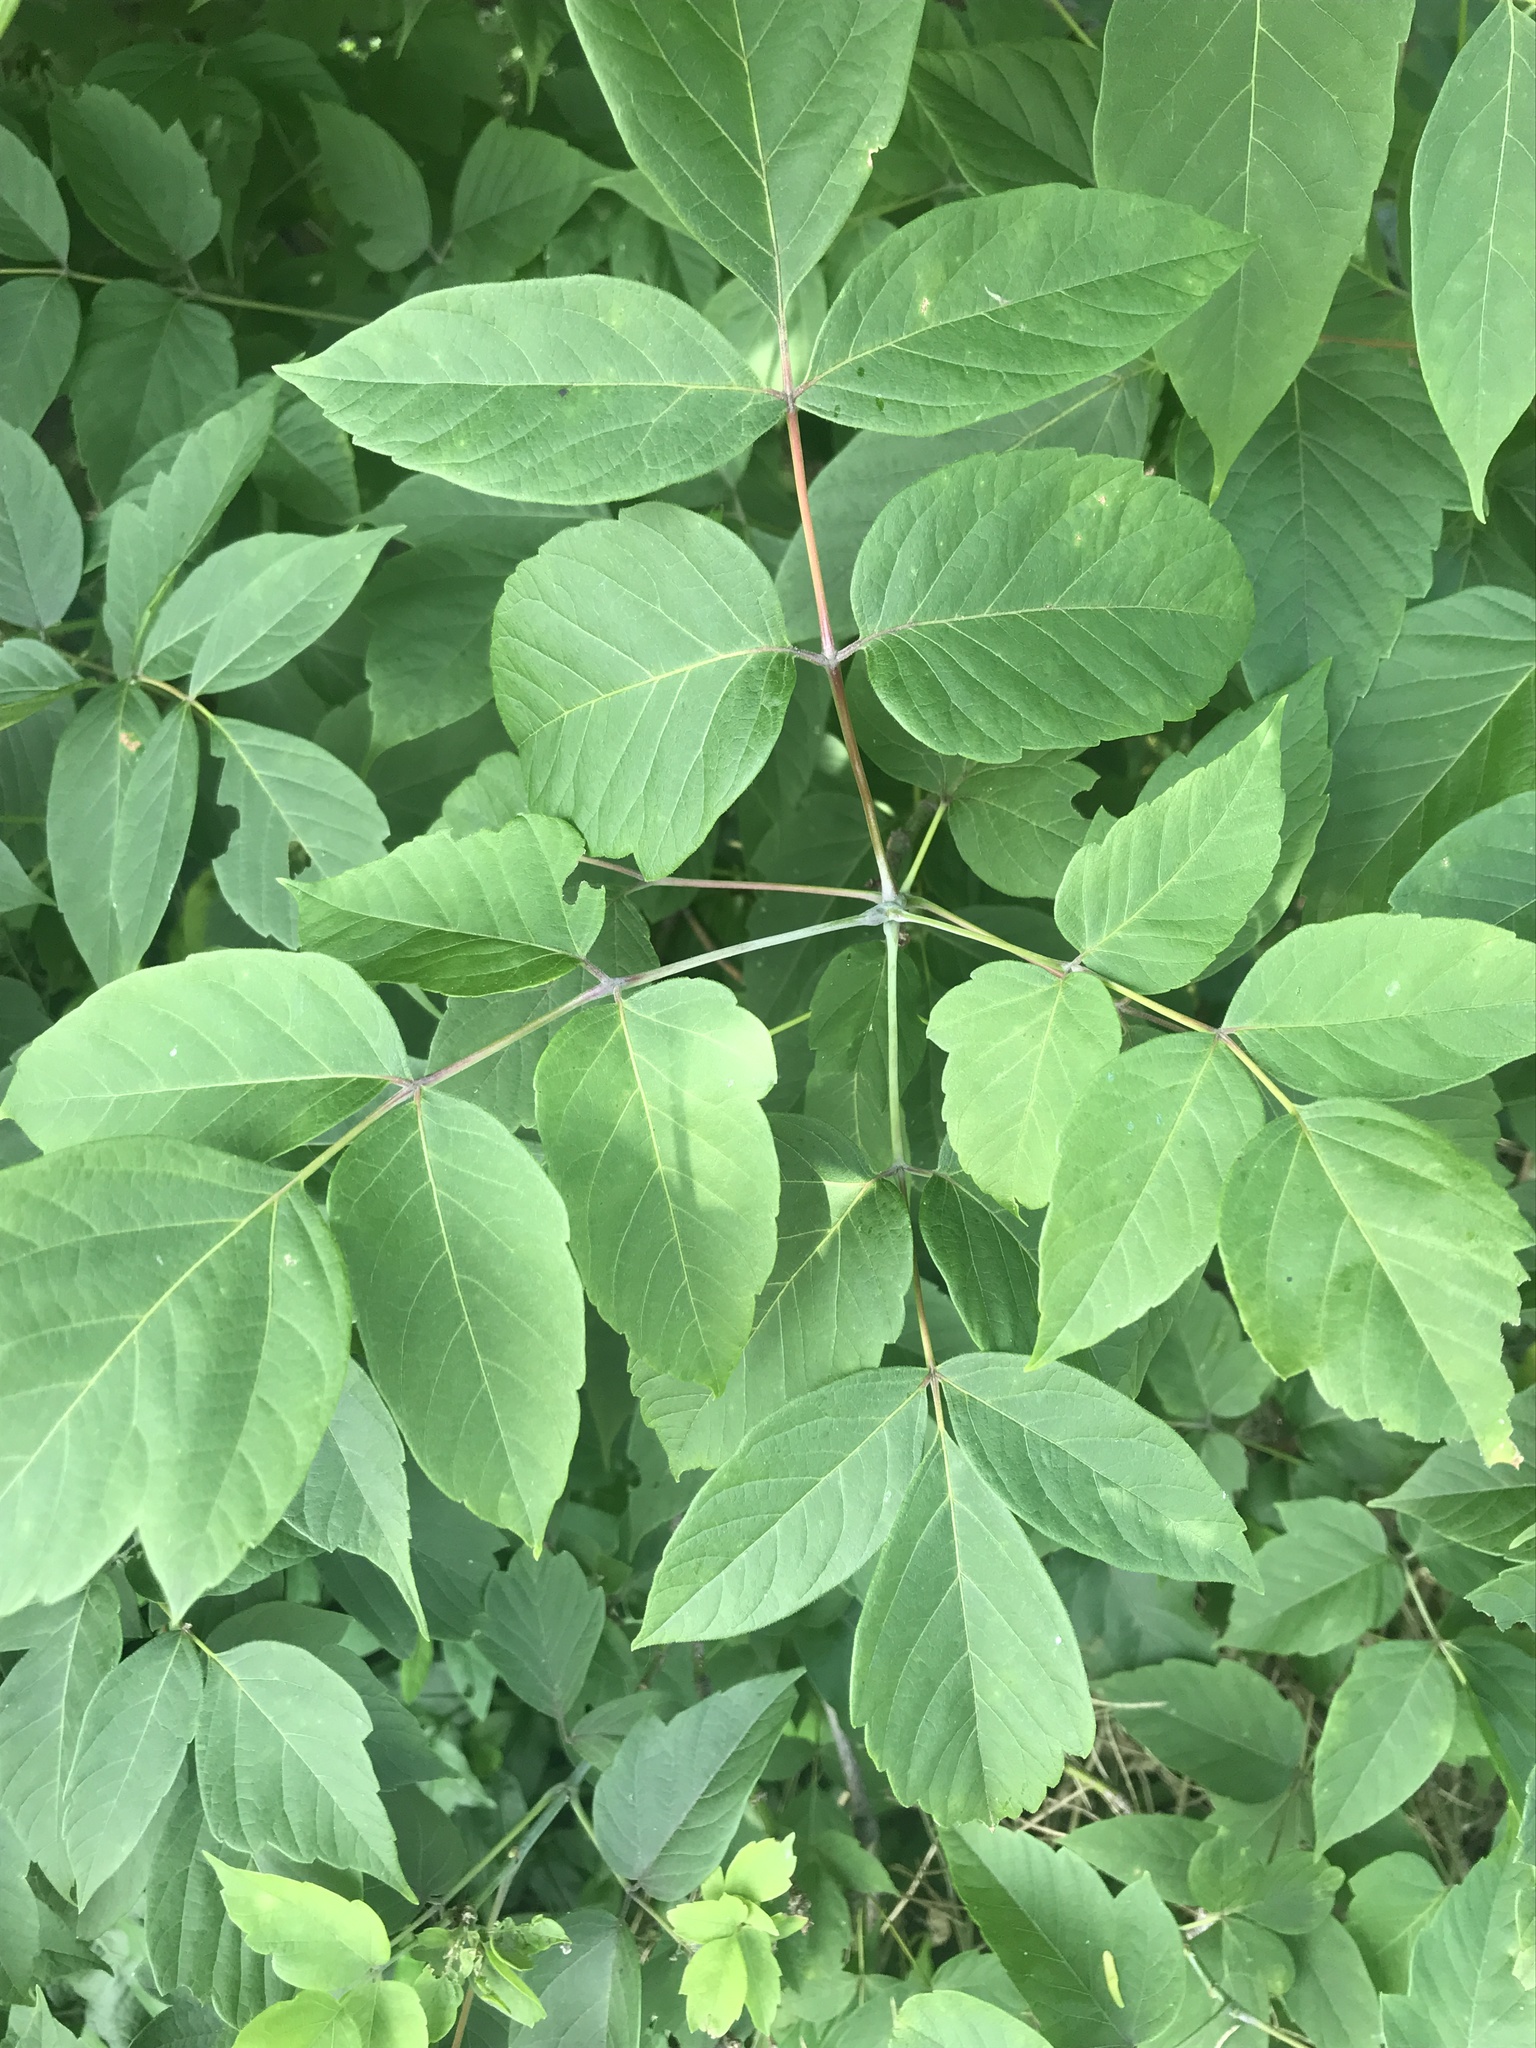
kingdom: Plantae
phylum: Tracheophyta
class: Magnoliopsida
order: Sapindales
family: Sapindaceae
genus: Acer
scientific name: Acer negundo
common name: Ashleaf maple
